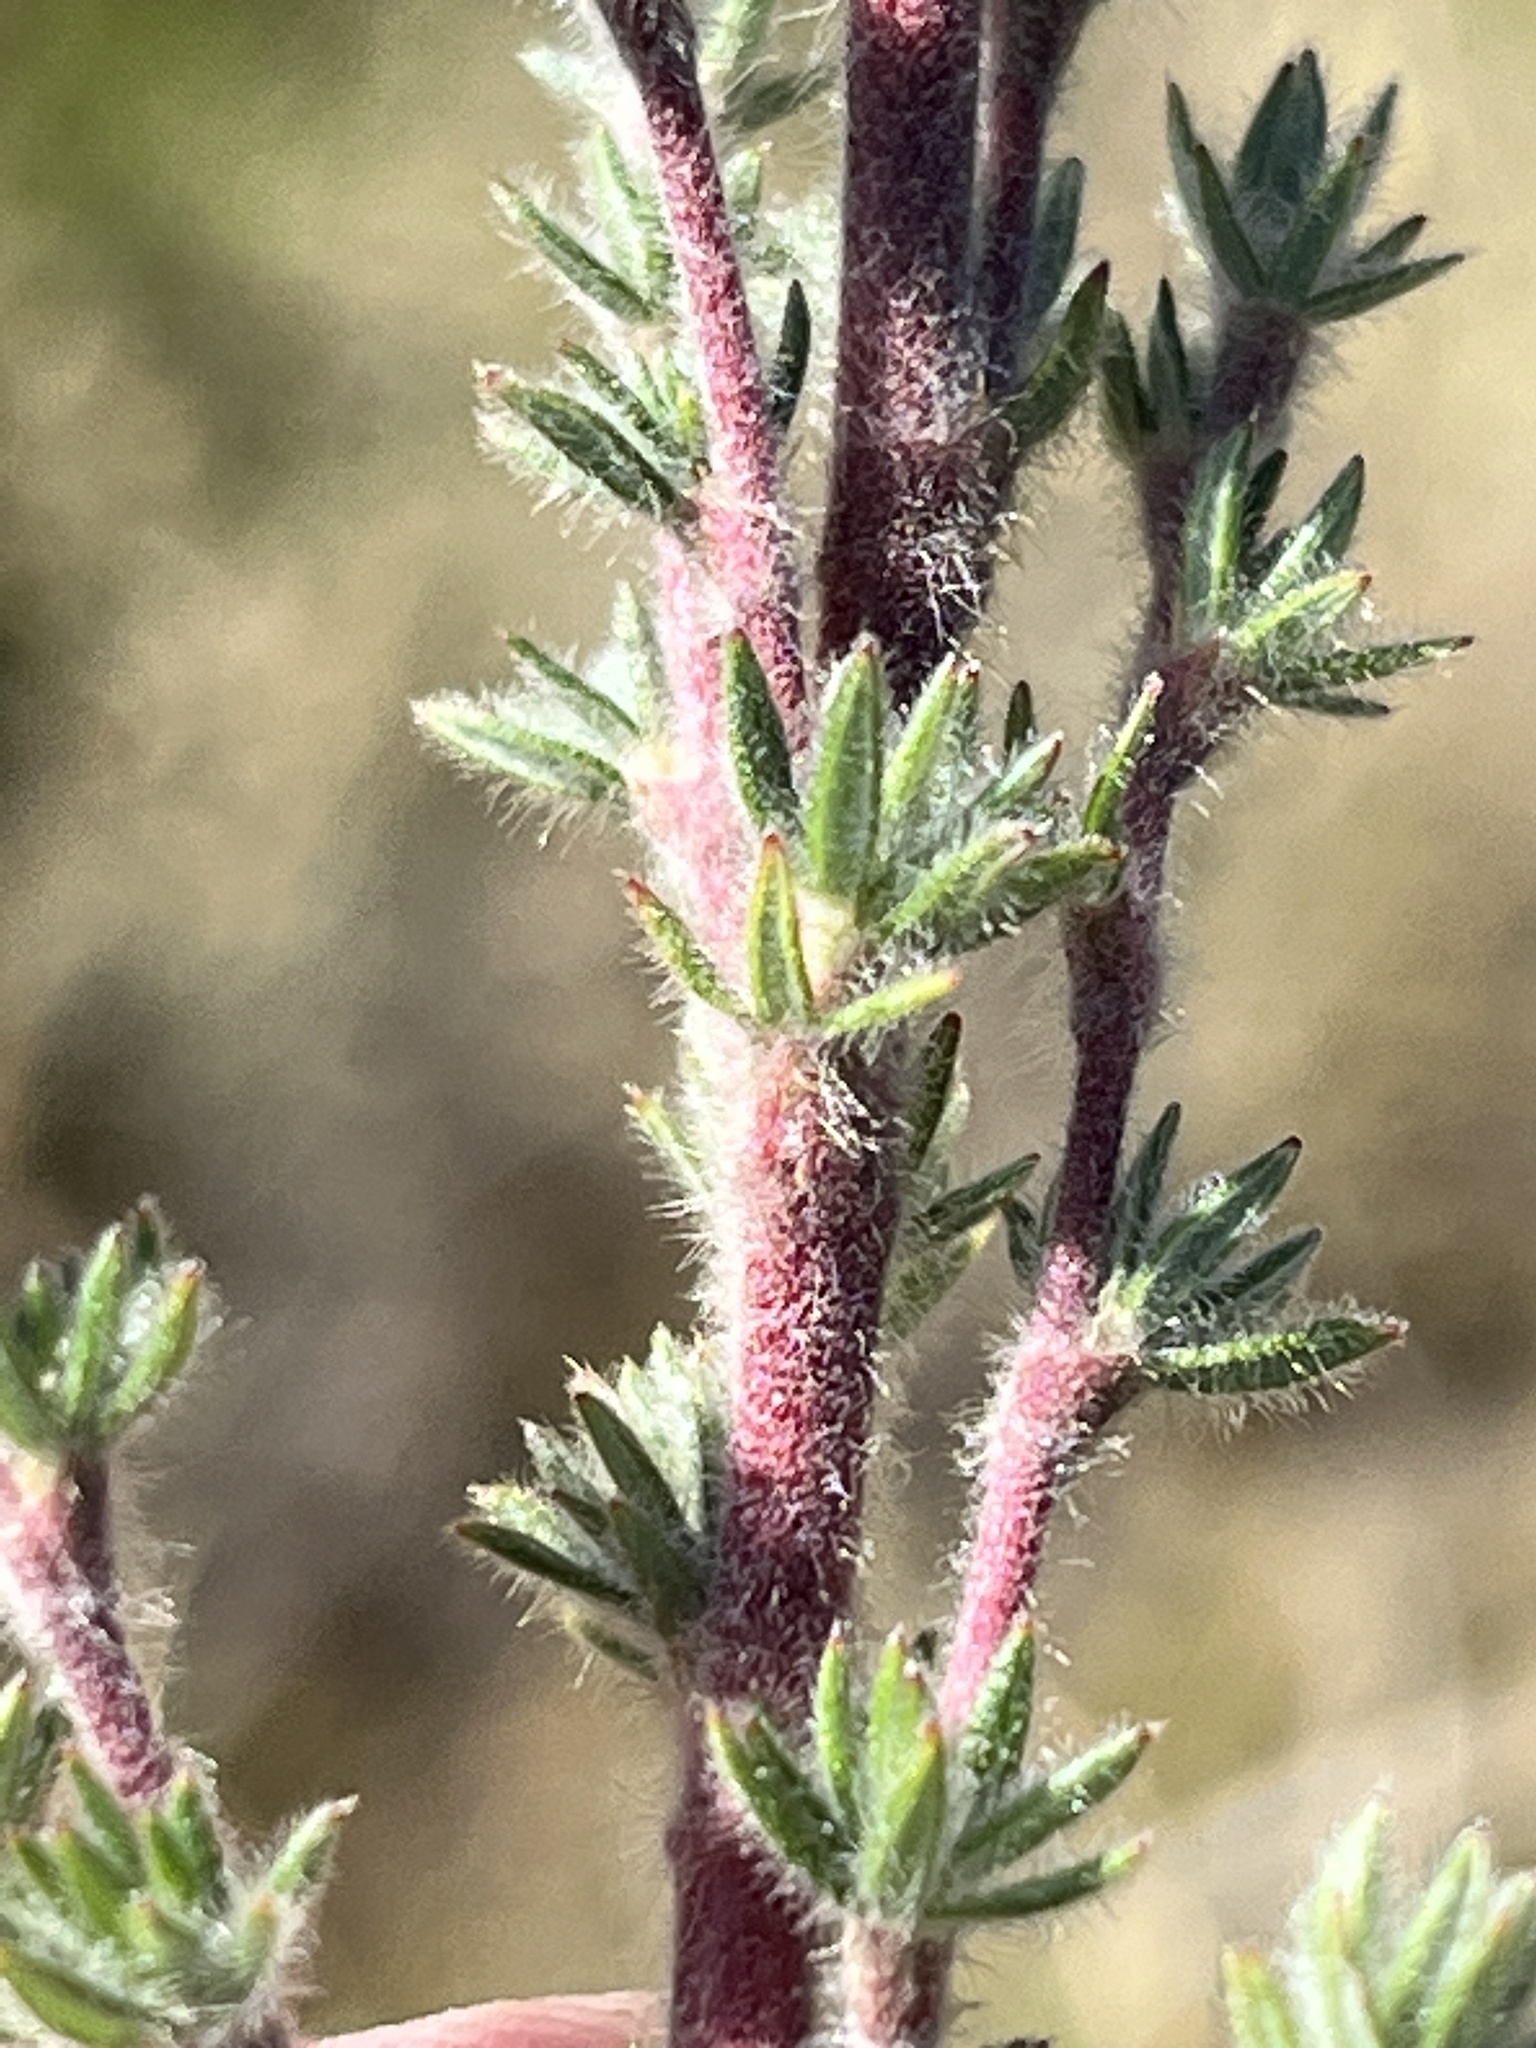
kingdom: Plantae
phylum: Tracheophyta
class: Magnoliopsida
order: Rosales
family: Rosaceae
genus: Cliffortia
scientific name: Cliffortia dispar
